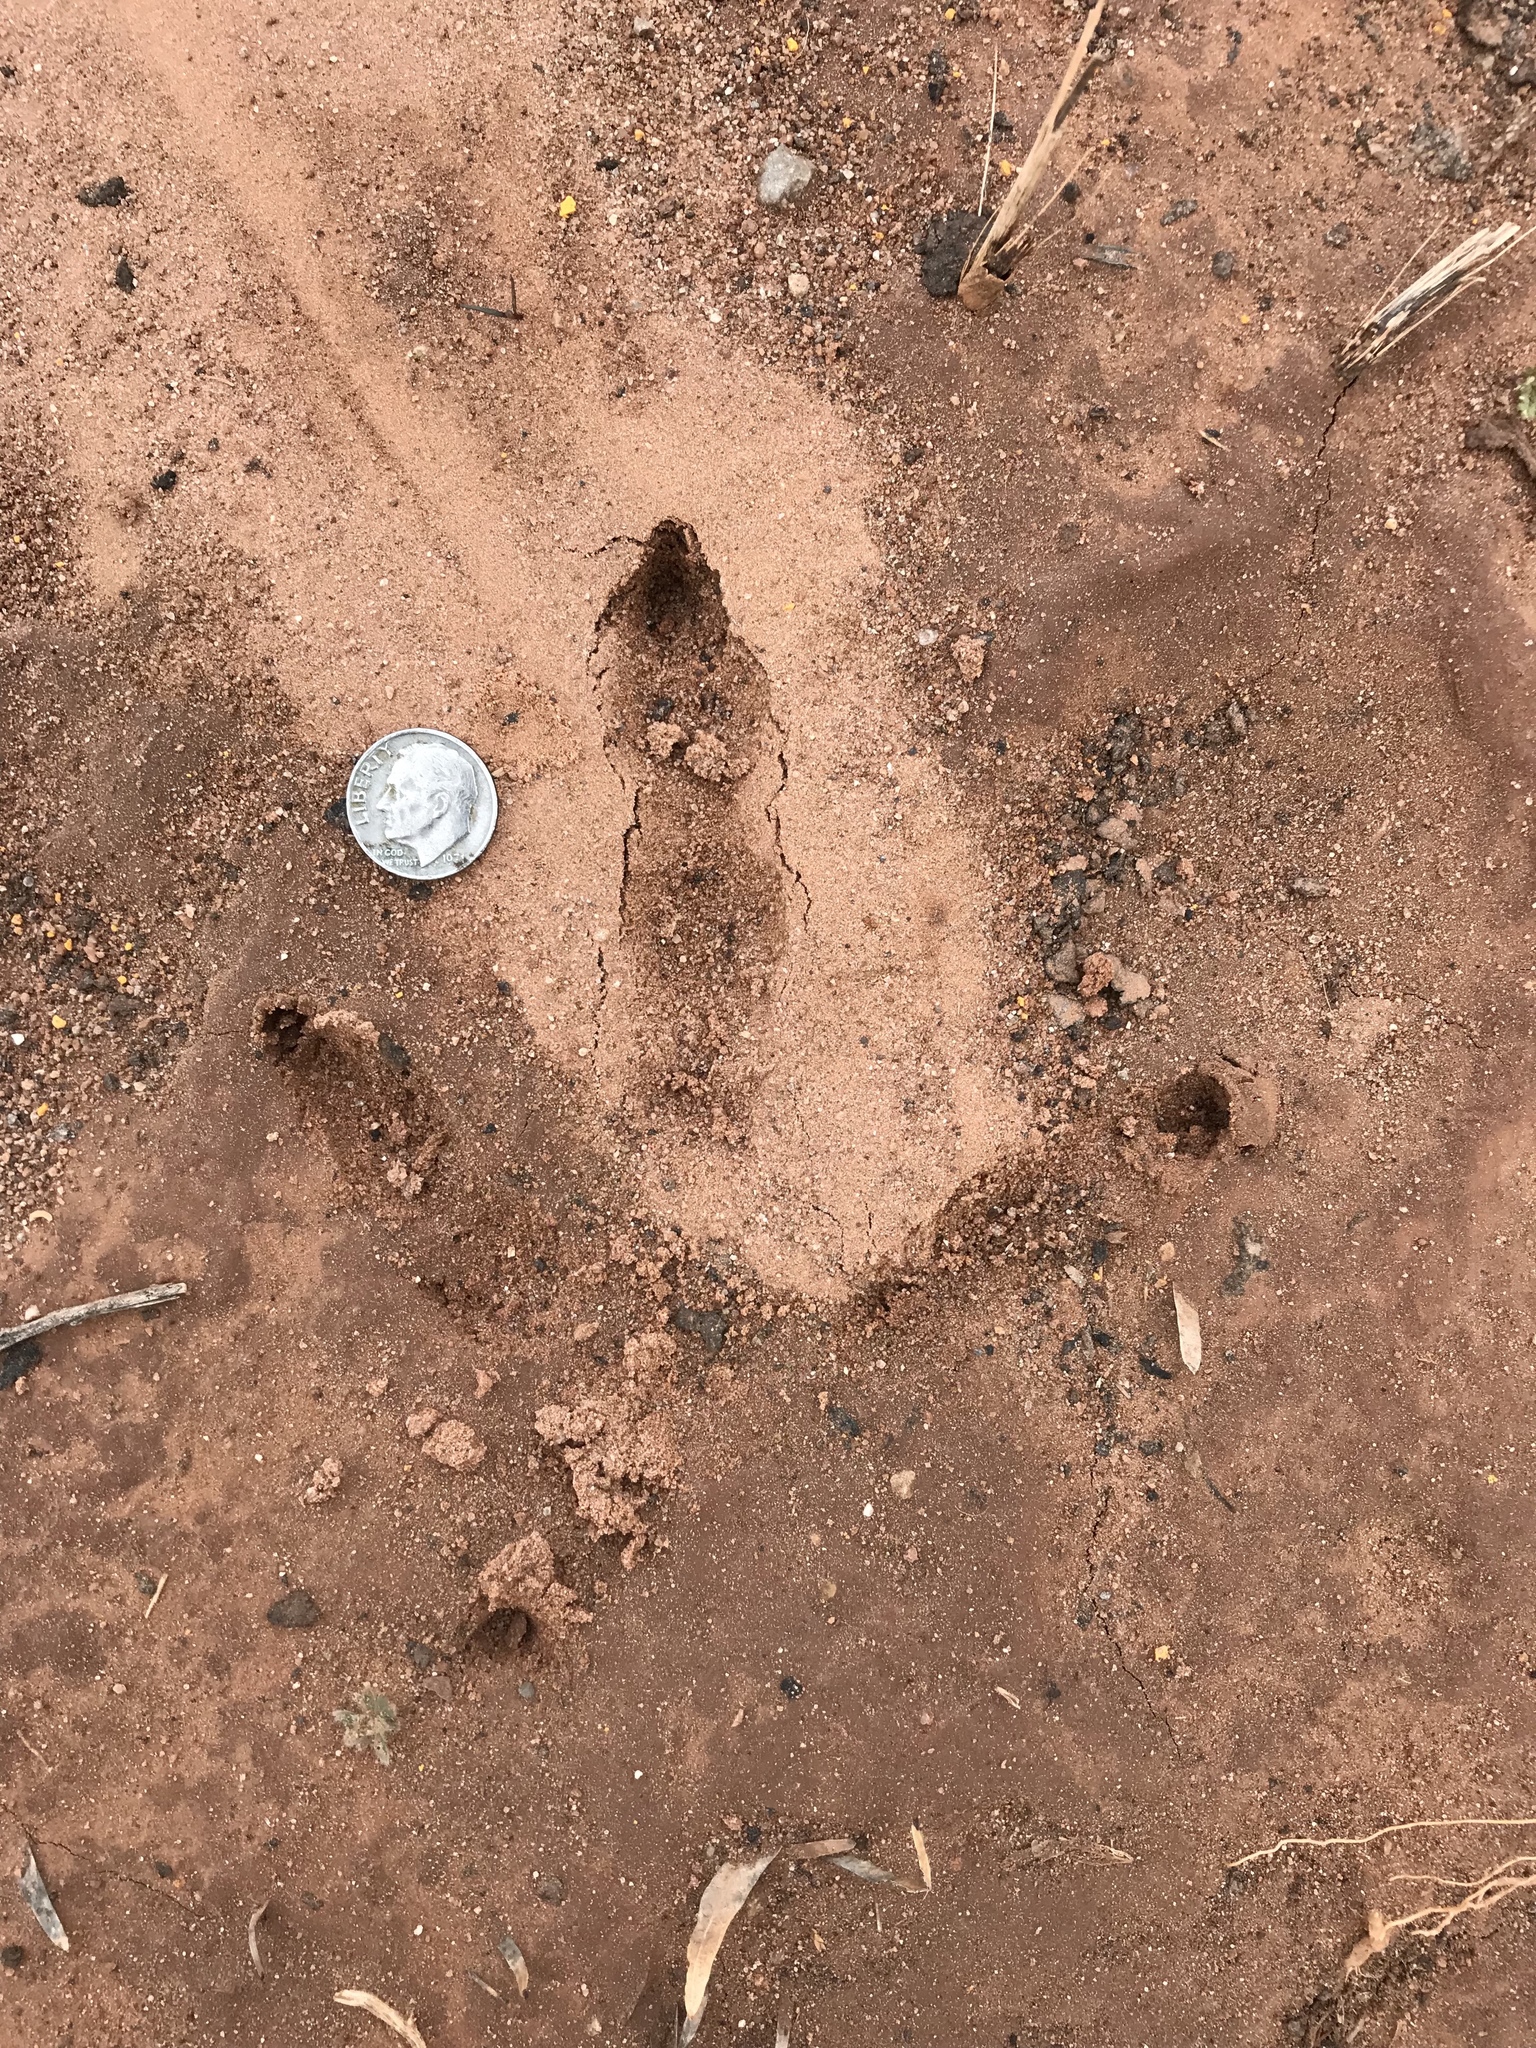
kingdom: Animalia
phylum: Chordata
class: Aves
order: Galliformes
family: Phasianidae
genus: Meleagris
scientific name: Meleagris gallopavo
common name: Wild turkey
